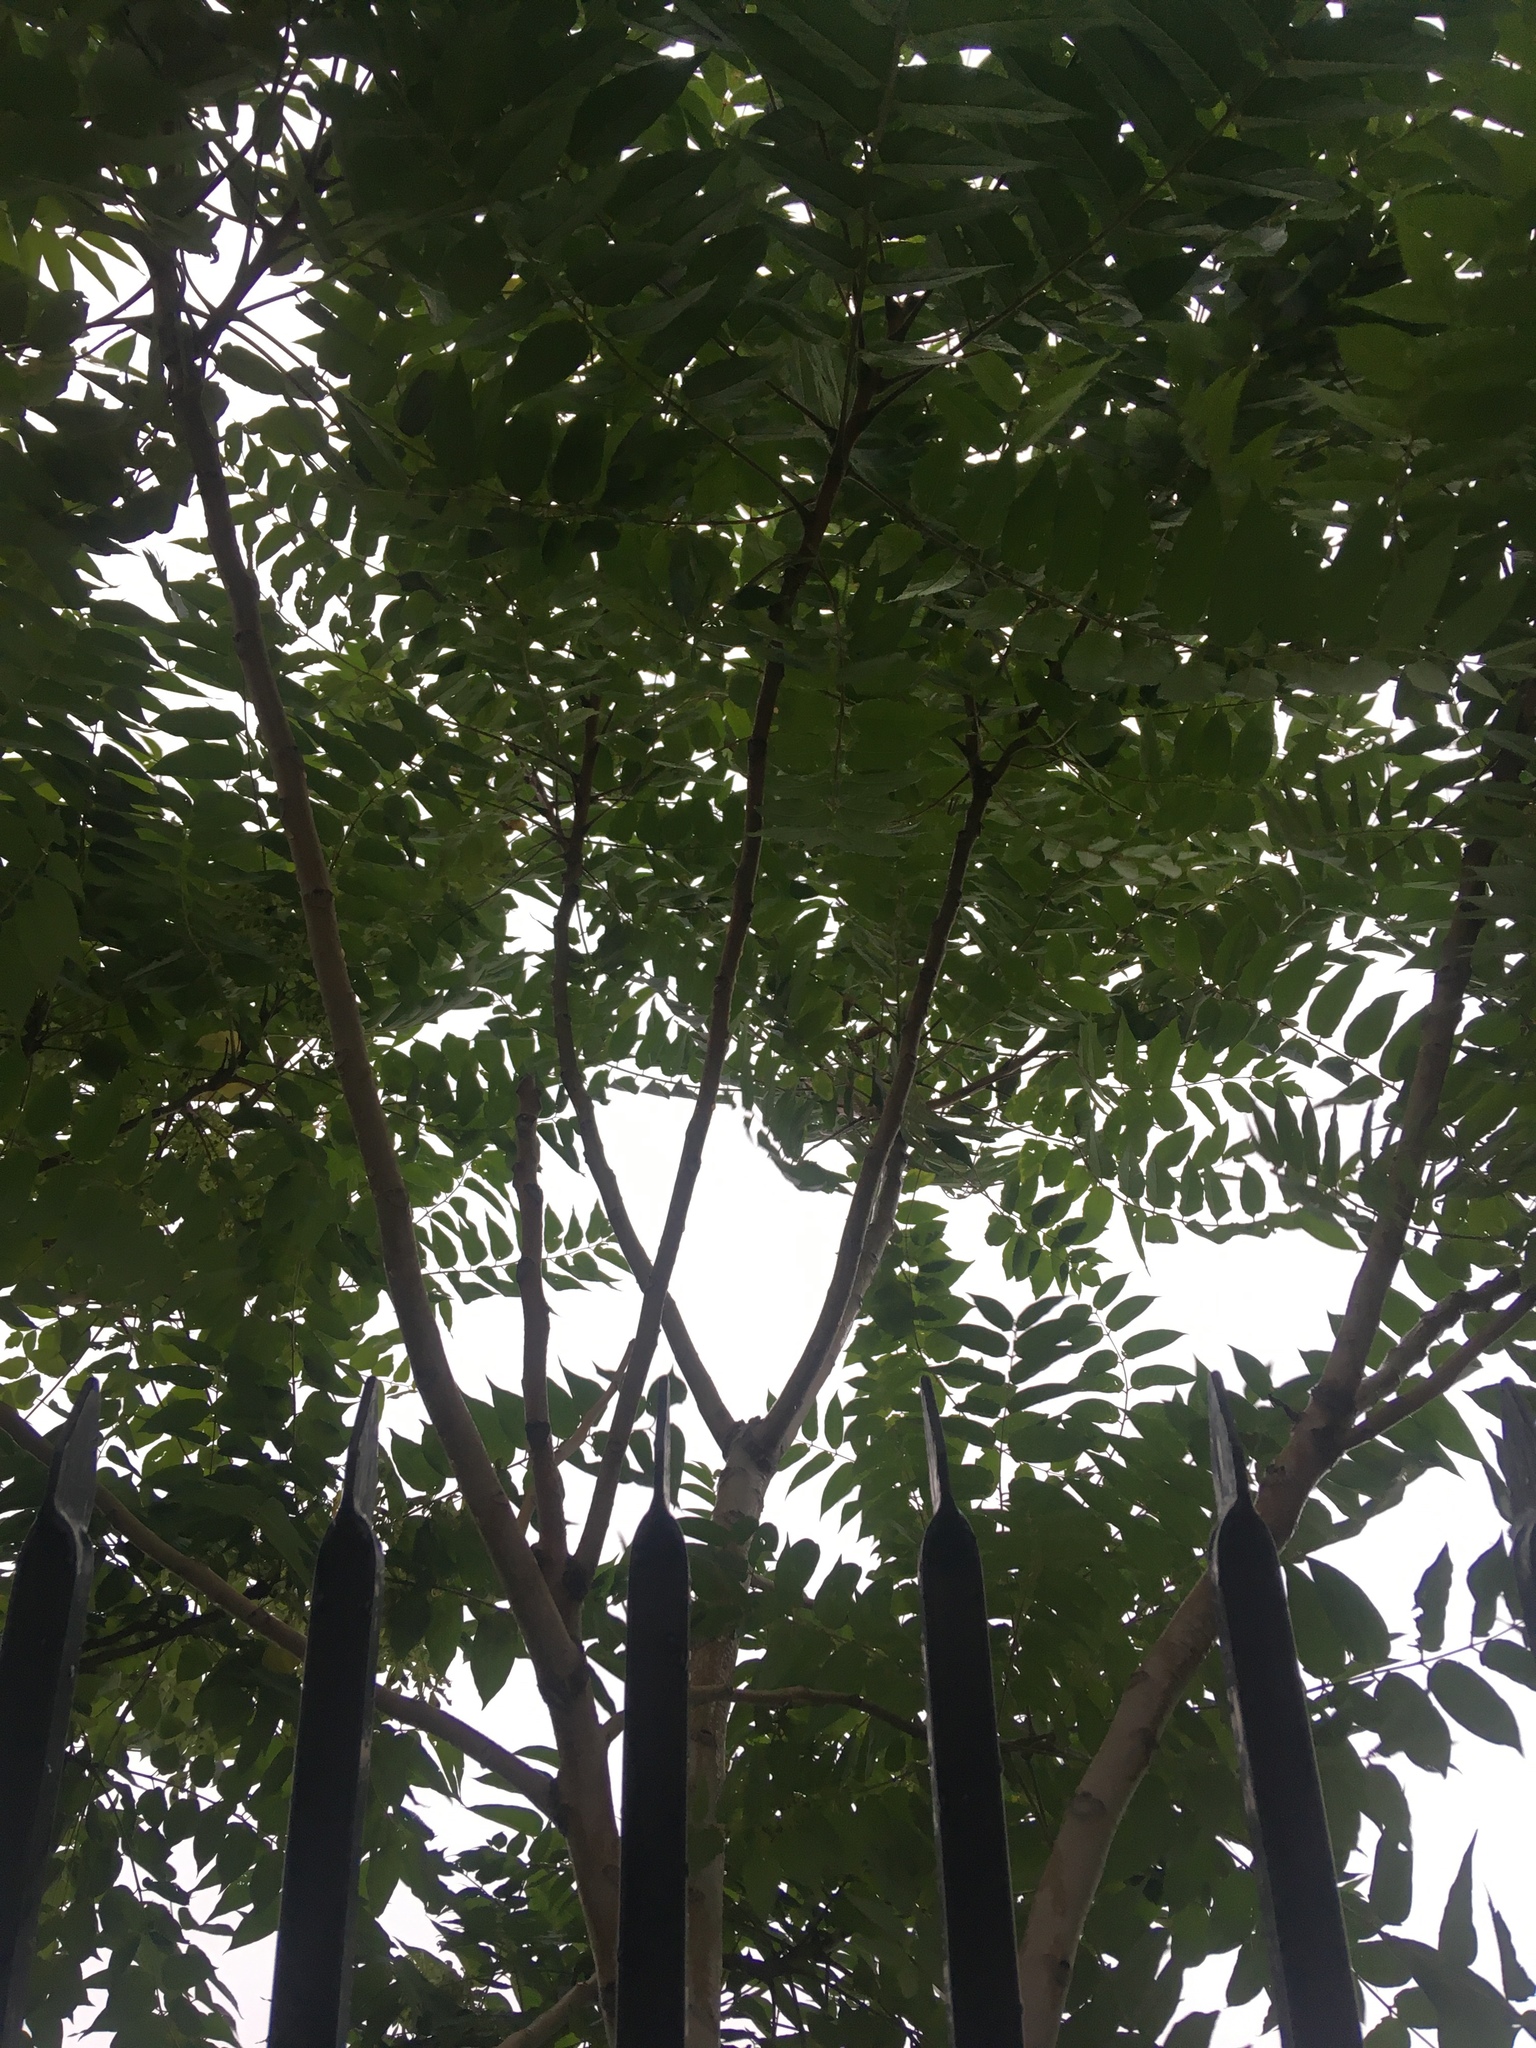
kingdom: Plantae
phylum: Tracheophyta
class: Magnoliopsida
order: Sapindales
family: Simaroubaceae
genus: Ailanthus
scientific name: Ailanthus altissima
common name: Tree-of-heaven
